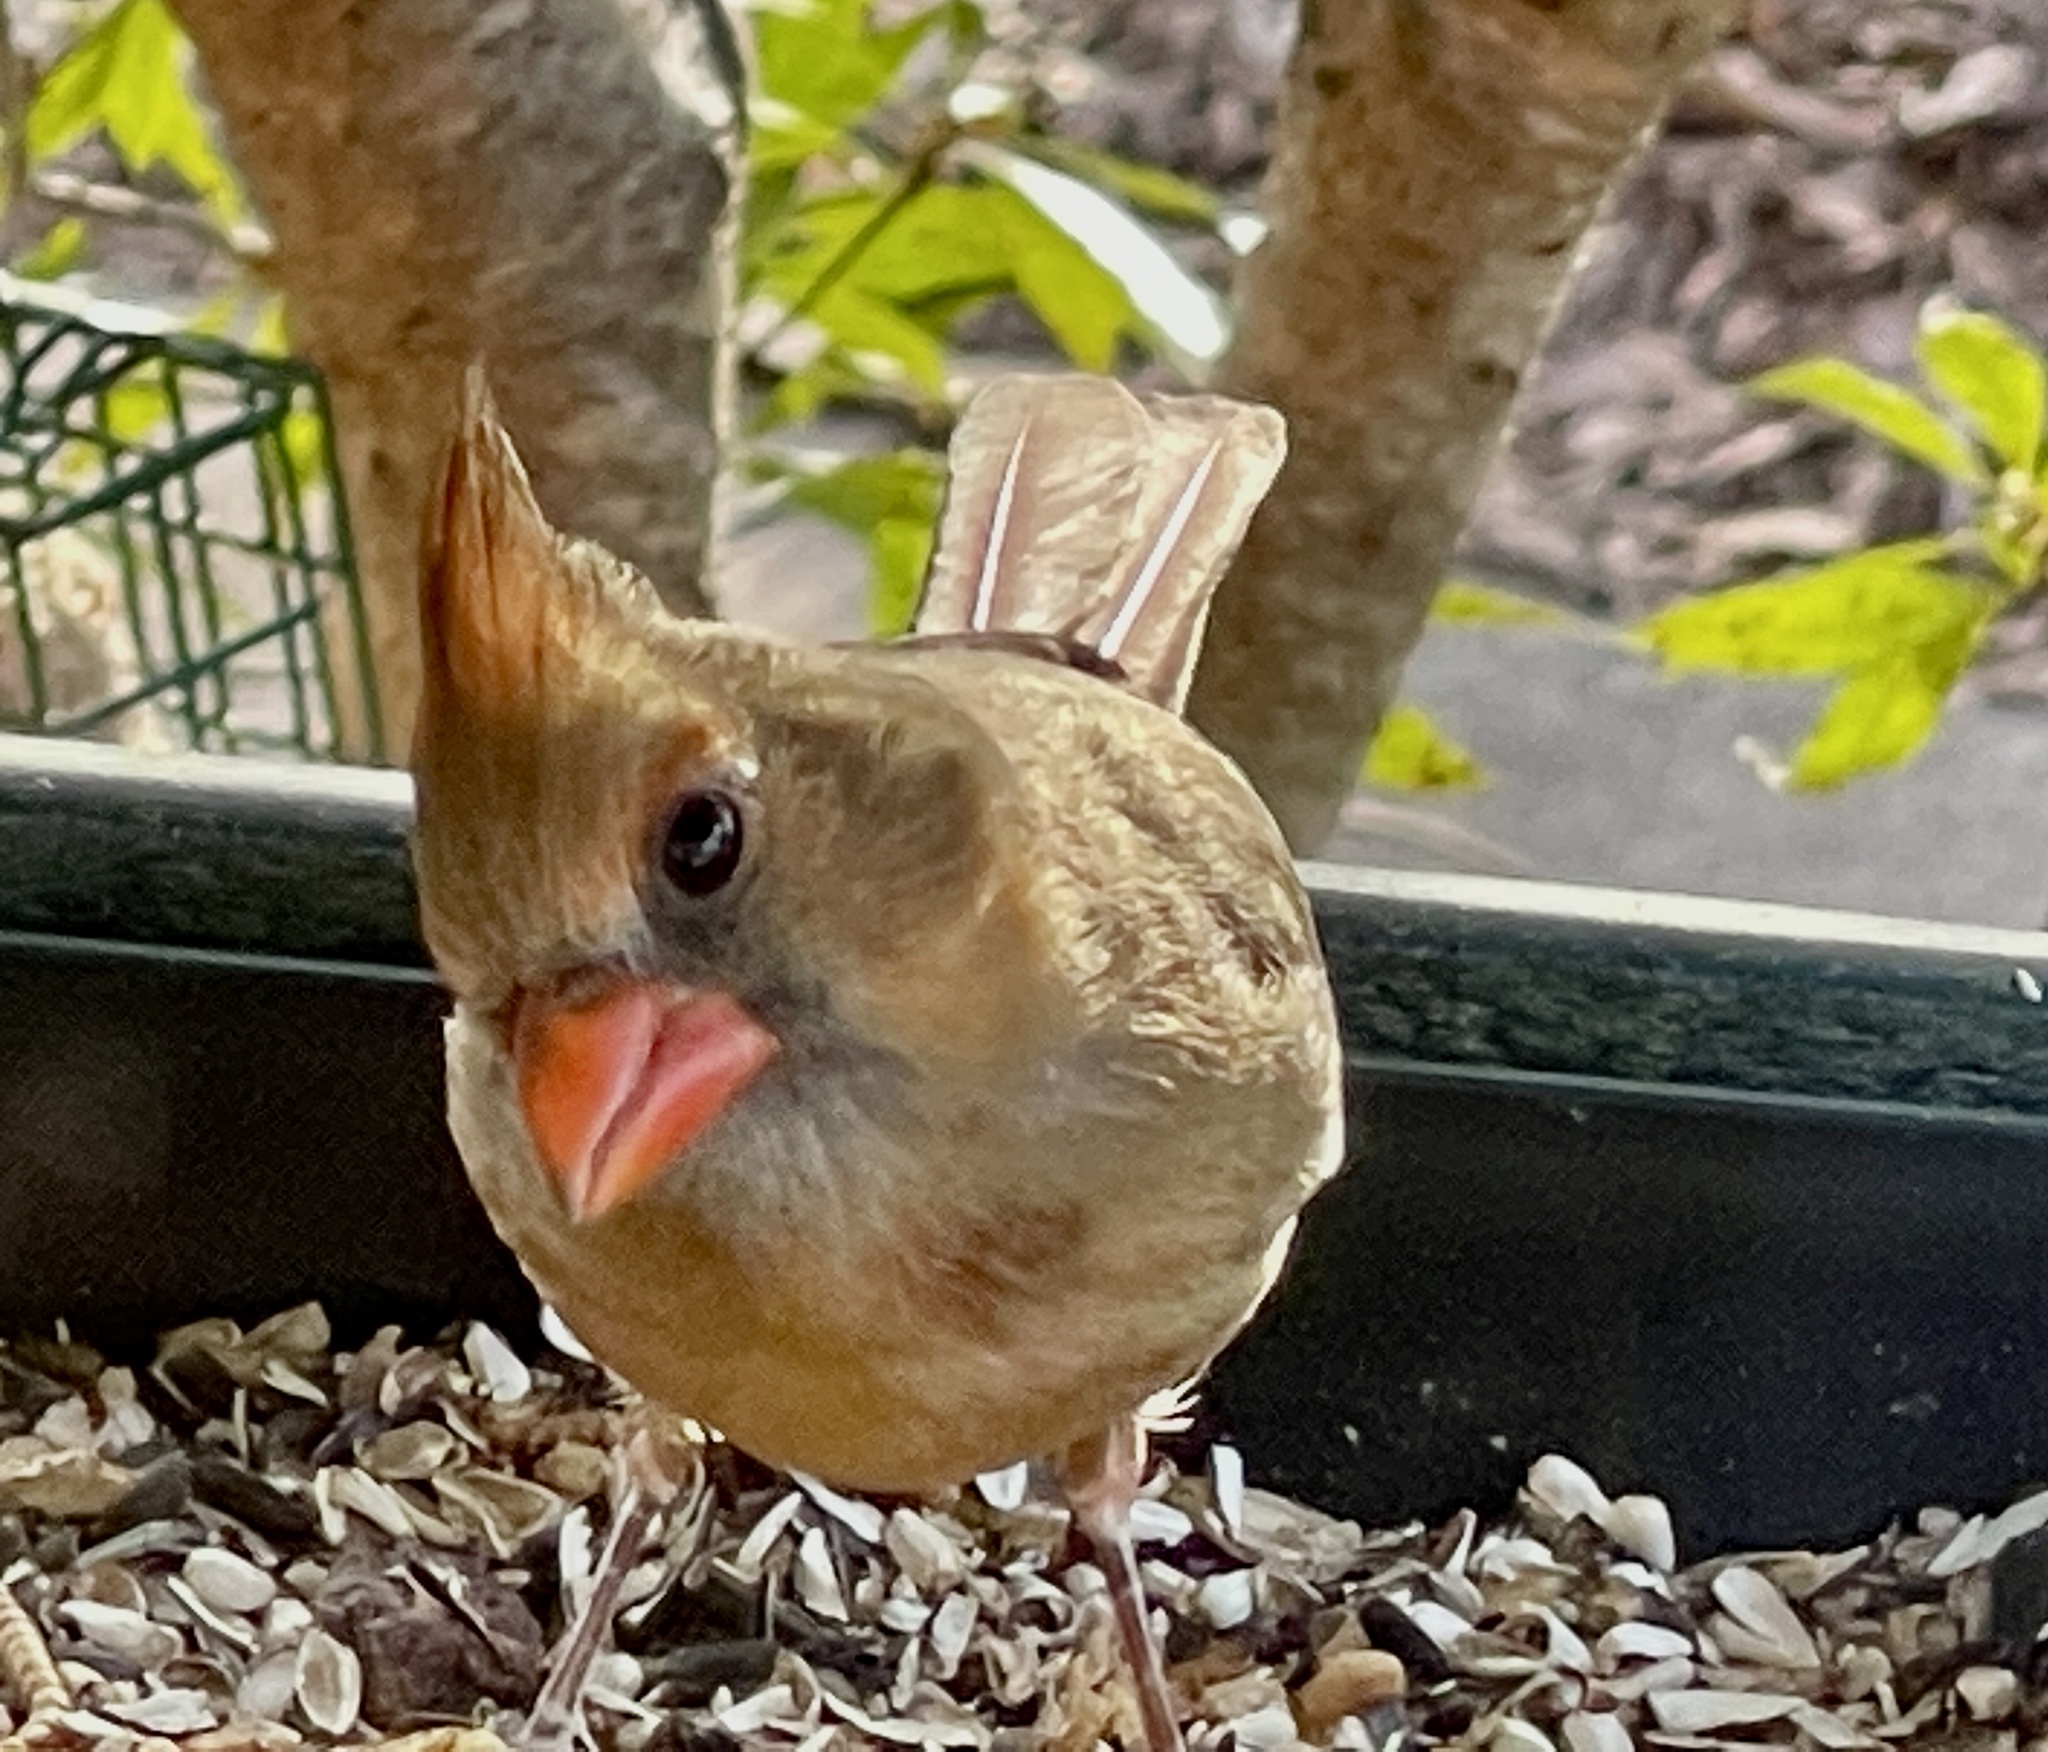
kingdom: Animalia
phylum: Chordata
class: Aves
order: Passeriformes
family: Cardinalidae
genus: Cardinalis
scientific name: Cardinalis cardinalis
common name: Northern cardinal
